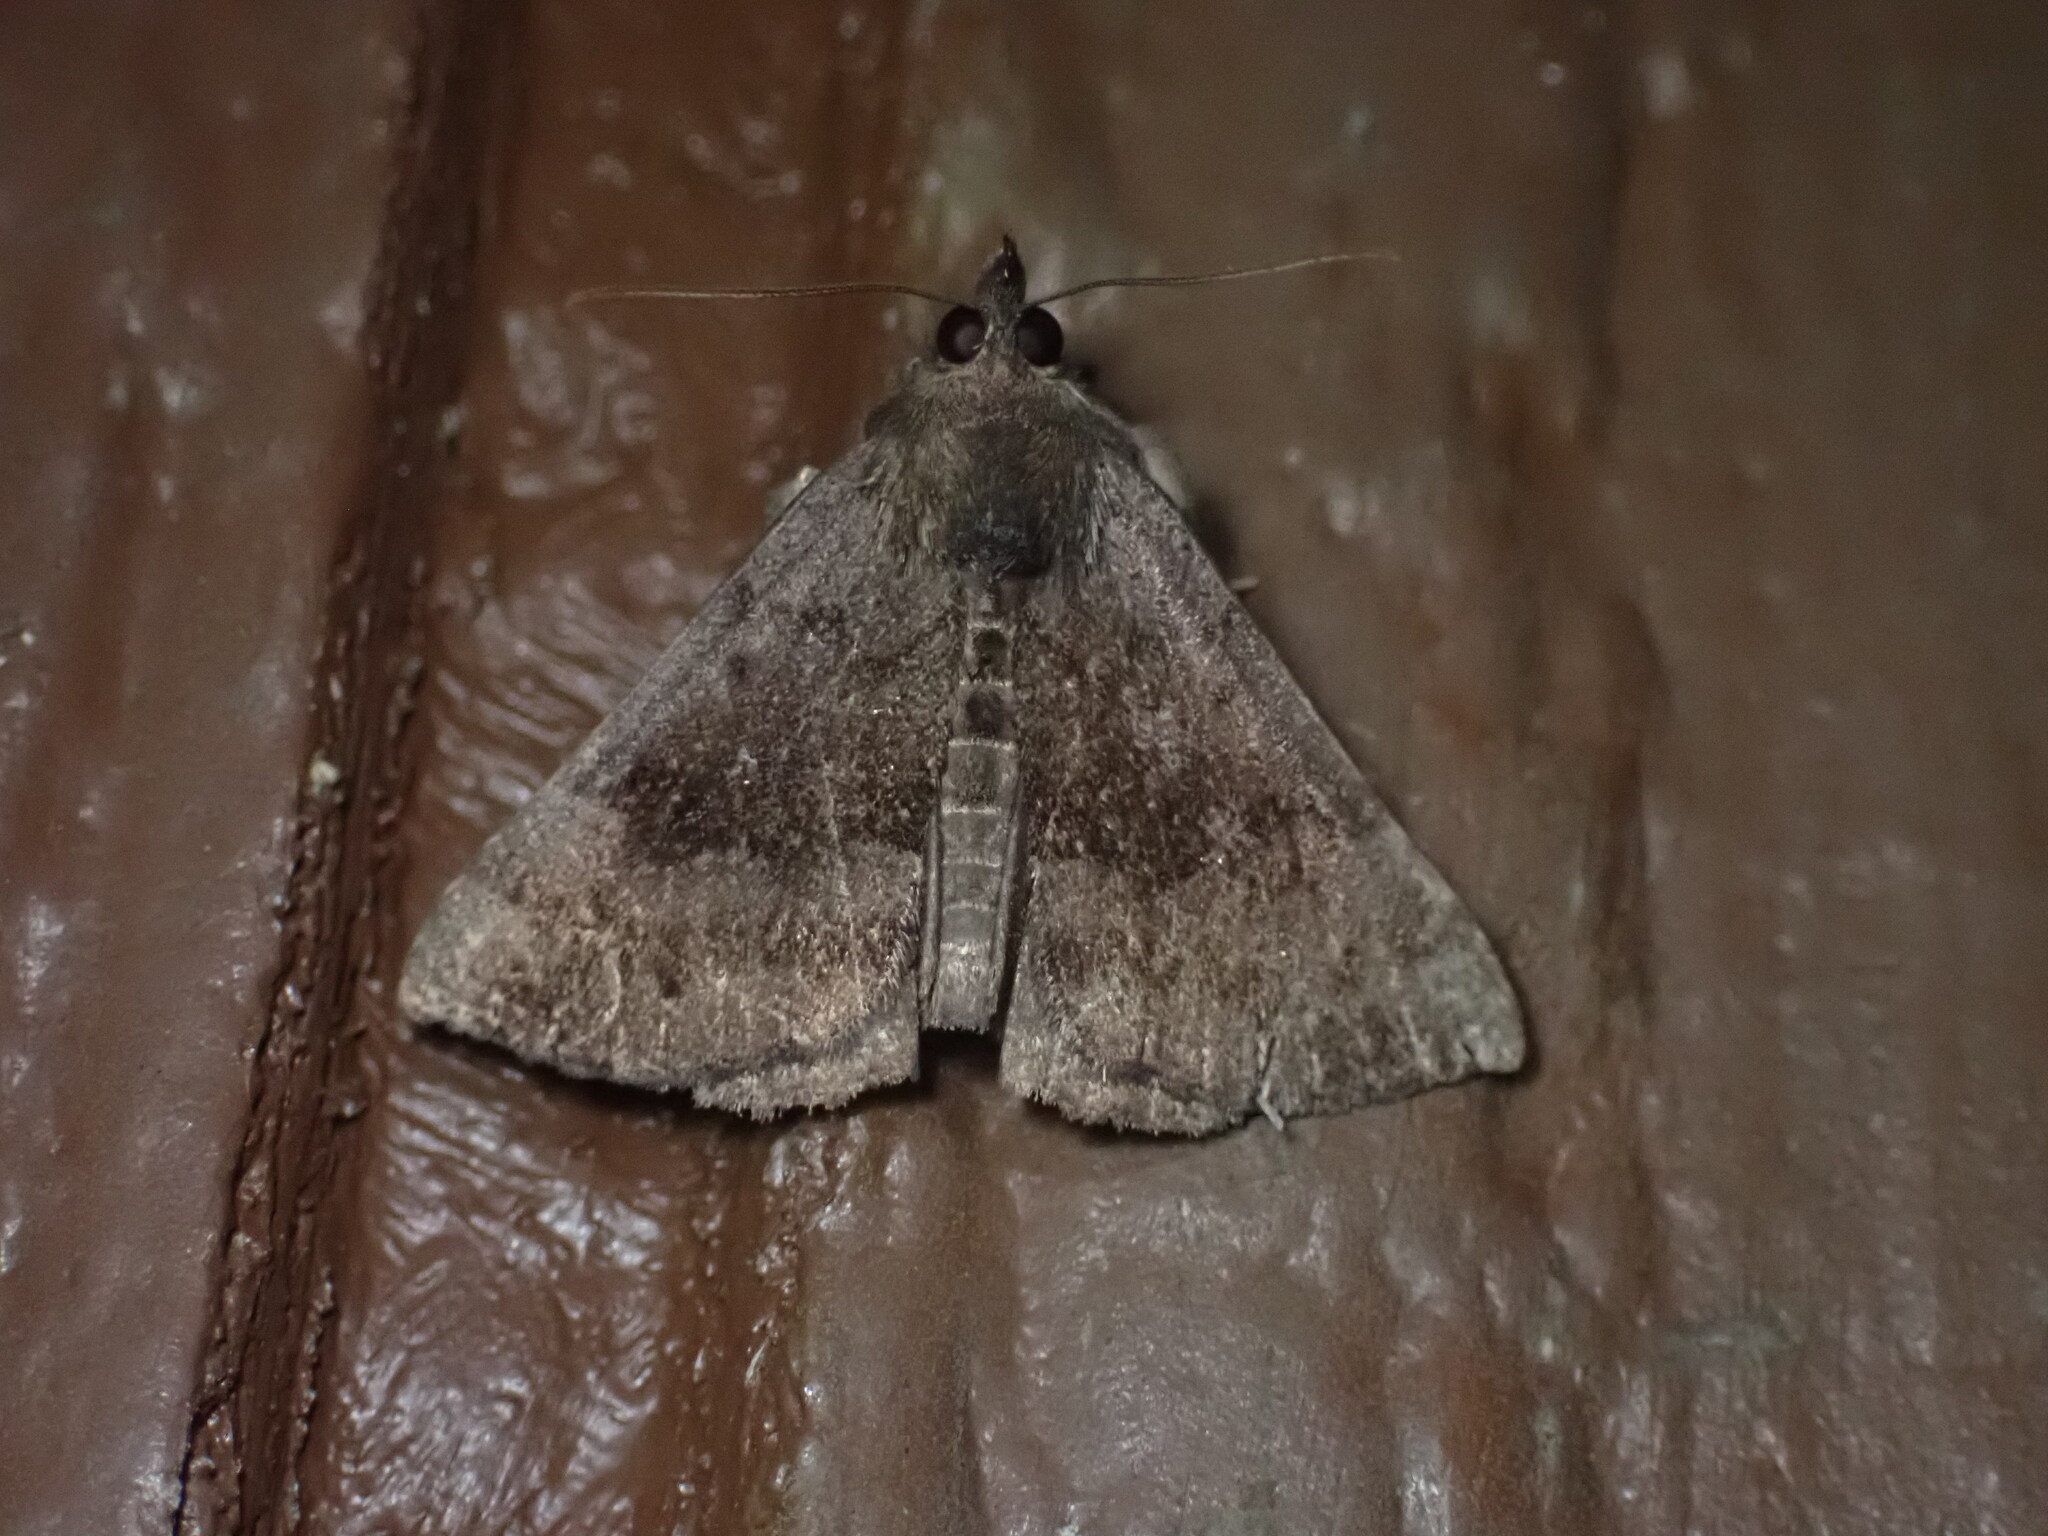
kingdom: Animalia
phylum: Arthropoda
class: Insecta
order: Lepidoptera
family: Erebidae
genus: Hypena
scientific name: Hypena madefactalis
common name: Gray-edged snout
